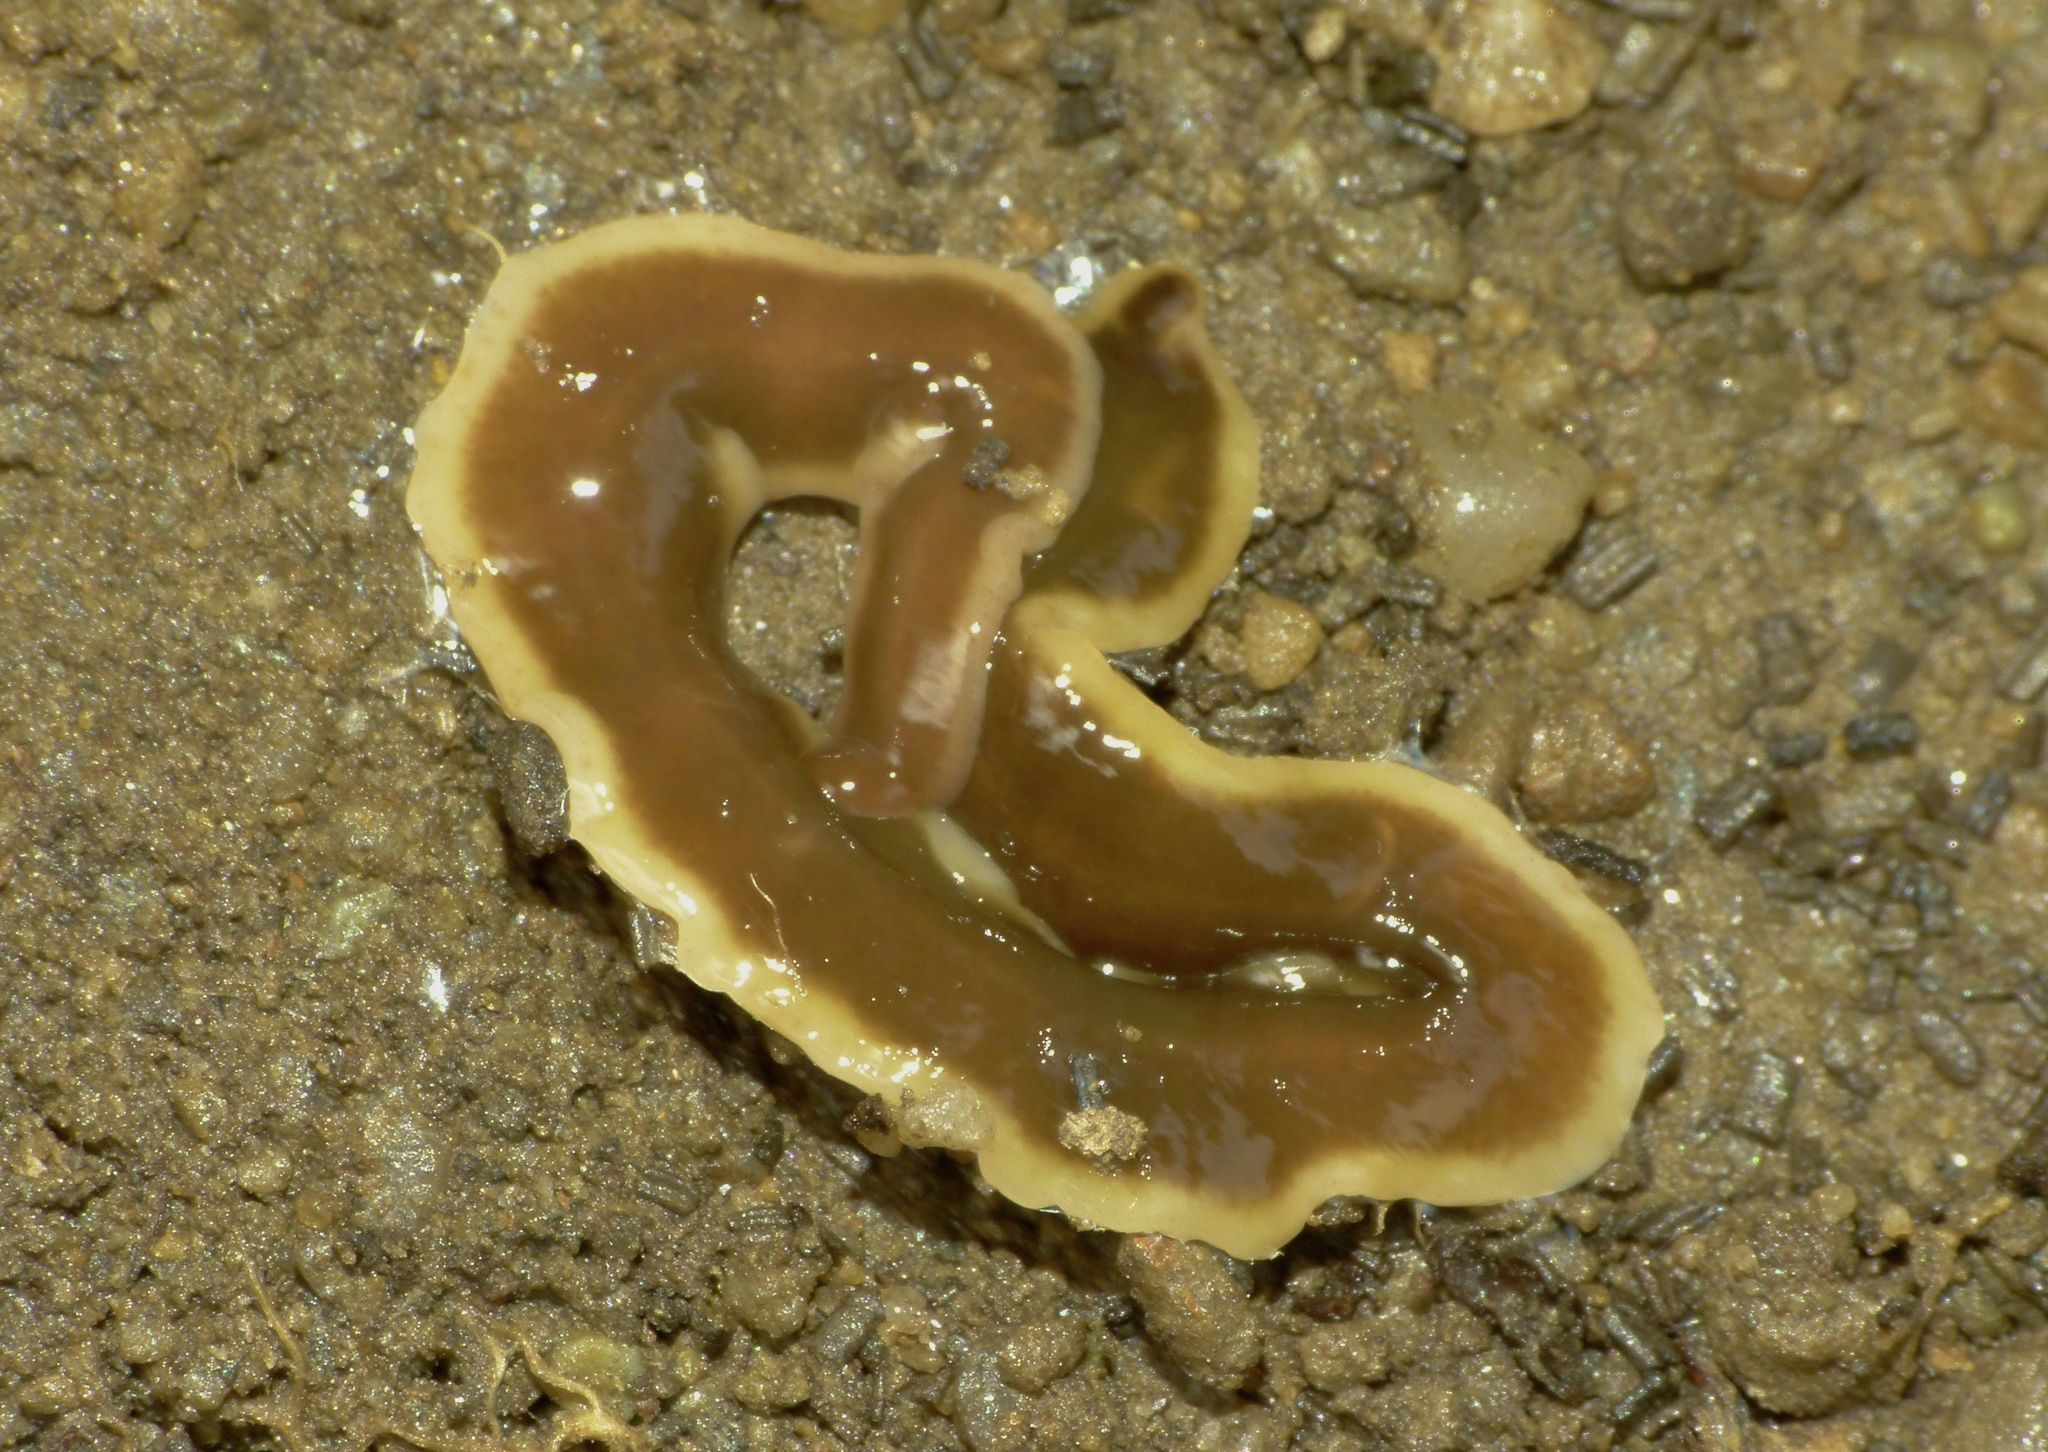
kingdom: Animalia
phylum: Platyhelminthes
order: Tricladida
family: Geoplanidae
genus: Arthurdendyus
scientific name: Arthurdendyus triangulatus
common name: New zealand flatworm
